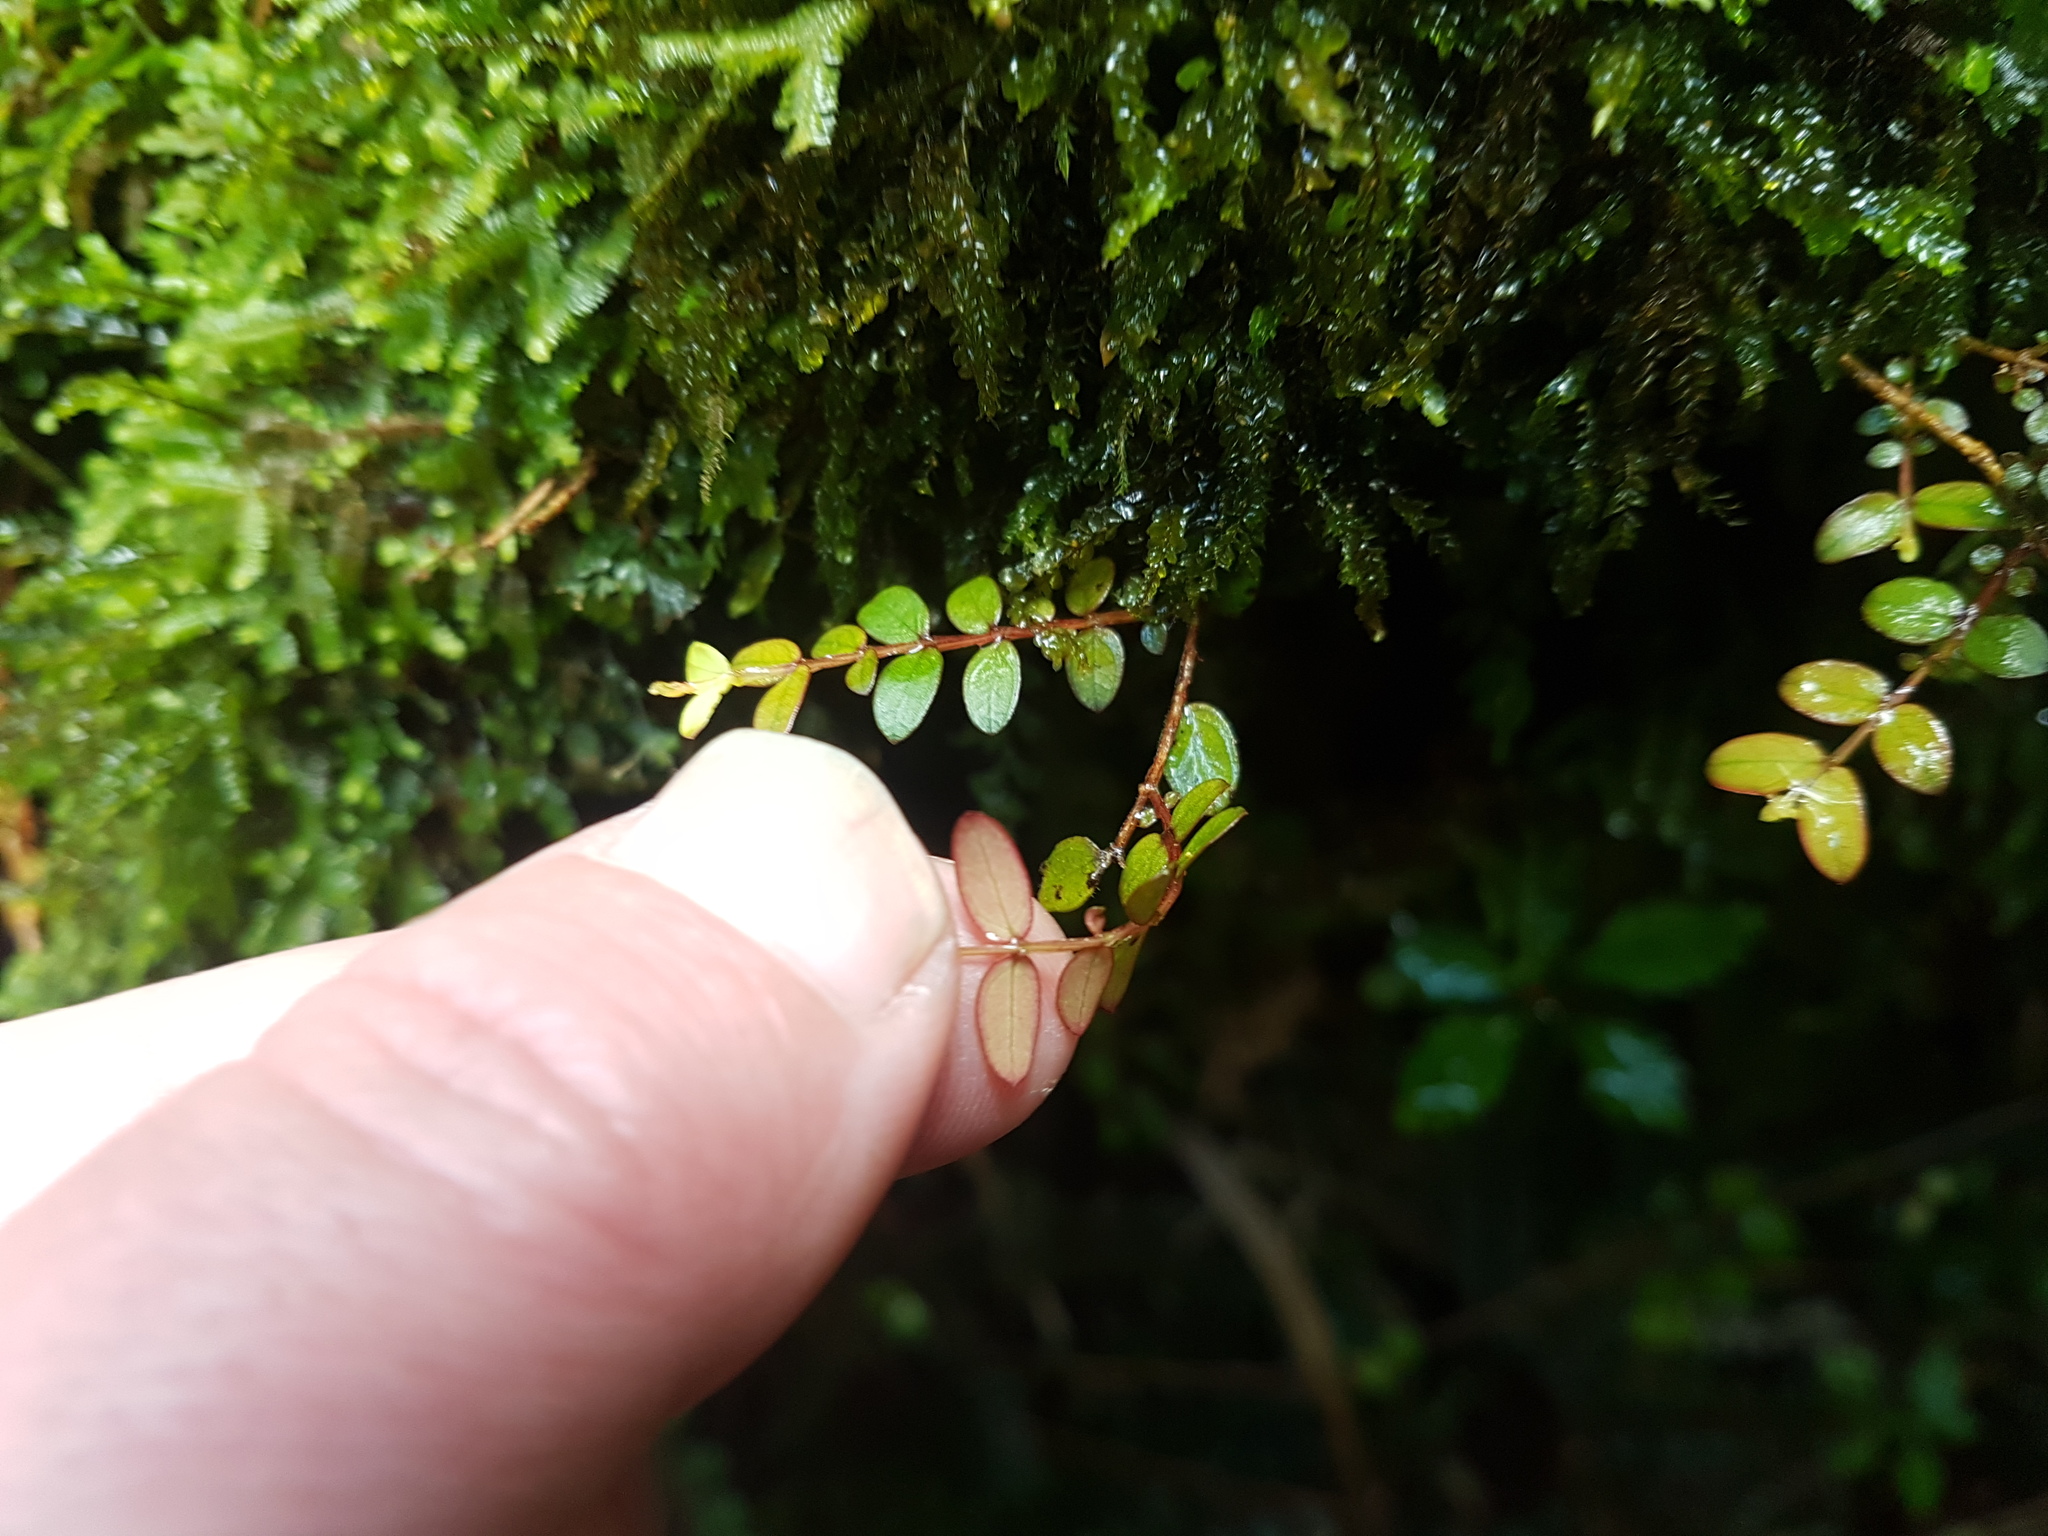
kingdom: Plantae
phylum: Tracheophyta
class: Magnoliopsida
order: Myrtales
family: Myrtaceae
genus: Metrosideros
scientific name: Metrosideros diffusa
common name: Small ratavine
